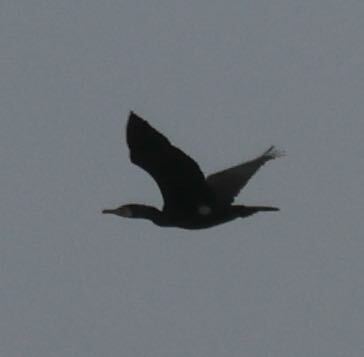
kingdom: Animalia
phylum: Chordata
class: Aves
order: Suliformes
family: Phalacrocoracidae
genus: Phalacrocorax
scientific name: Phalacrocorax carbo
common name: Great cormorant
